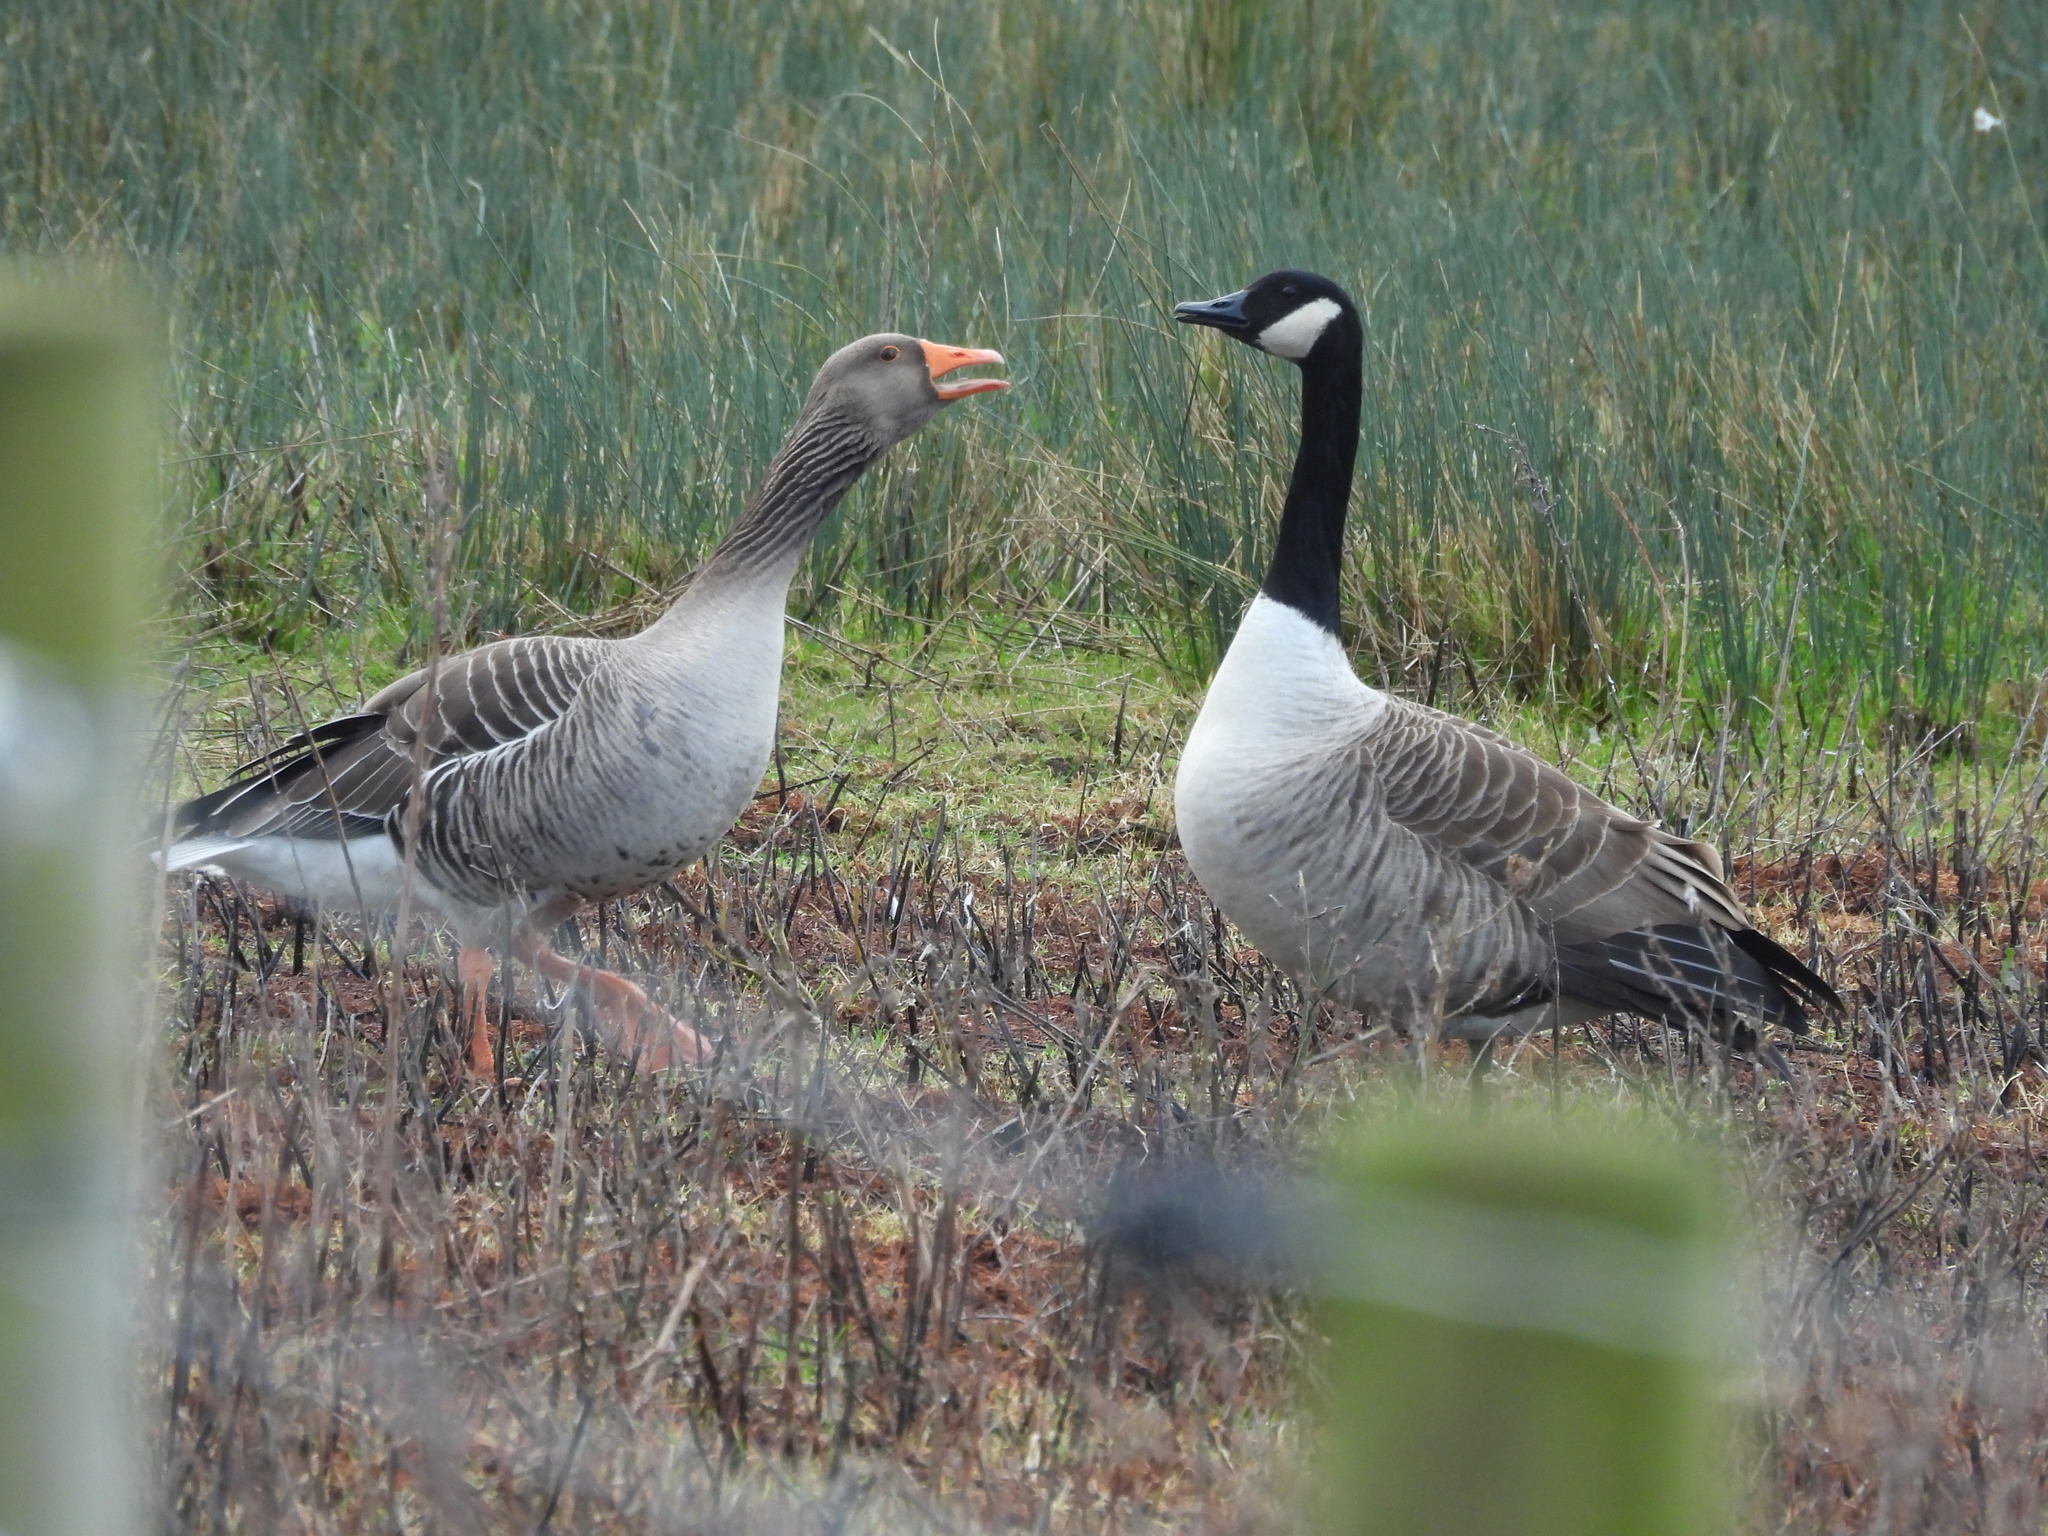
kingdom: Animalia
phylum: Chordata
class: Aves
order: Anseriformes
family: Anatidae
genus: Anser
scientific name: Anser anser
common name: Greylag goose
